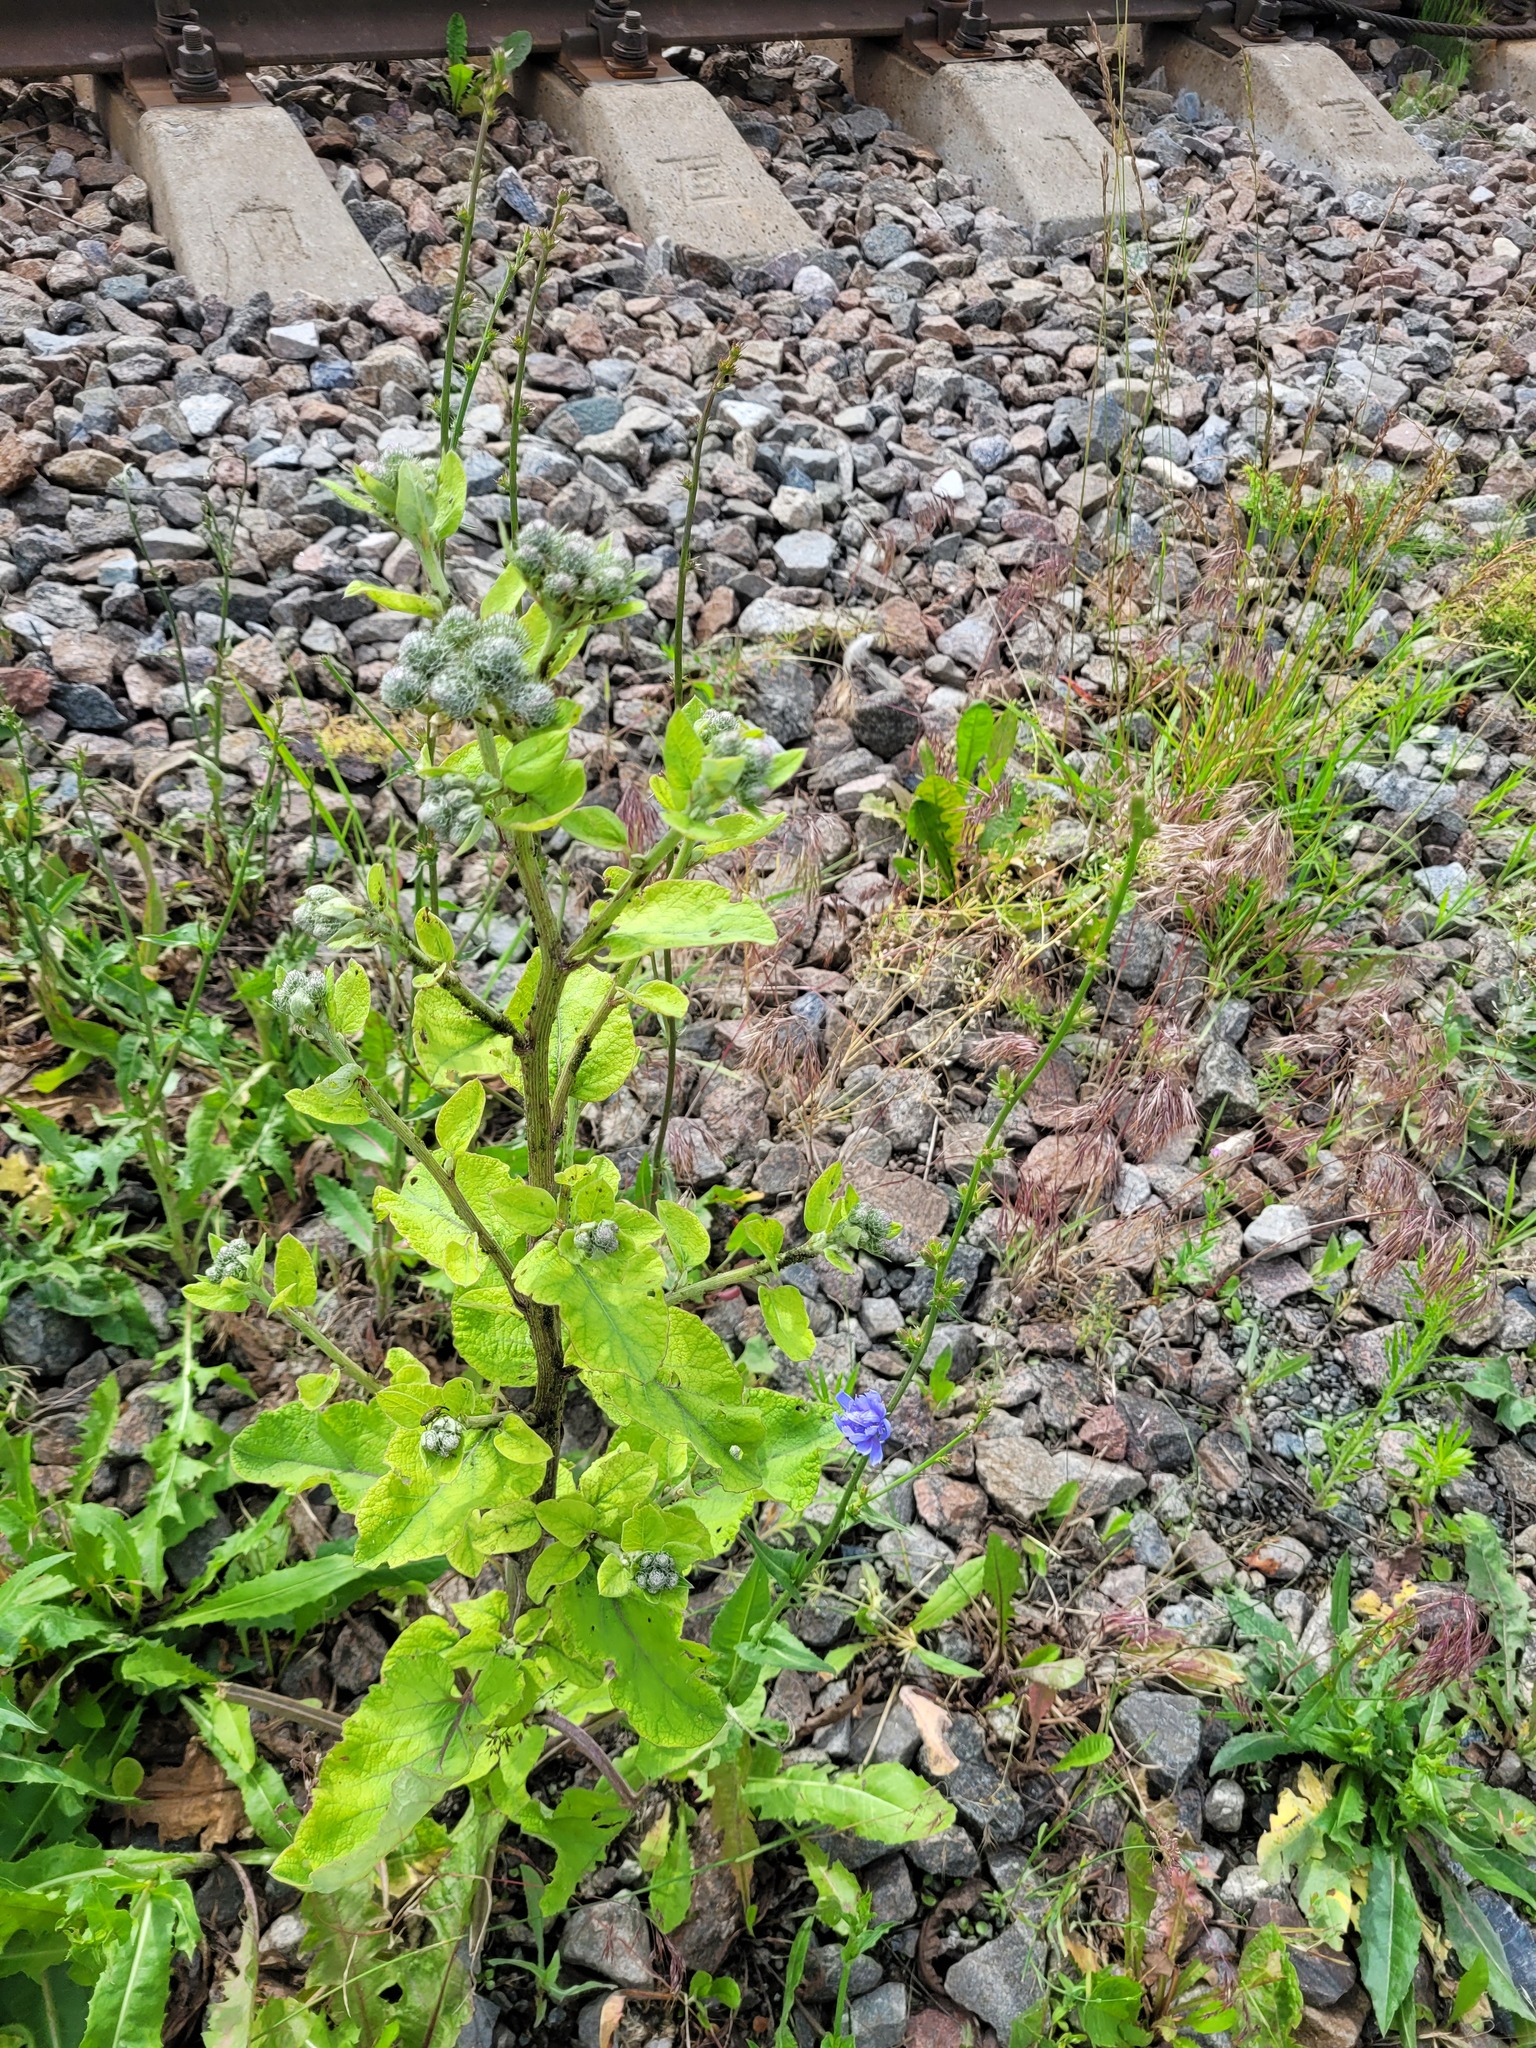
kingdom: Plantae
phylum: Tracheophyta
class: Magnoliopsida
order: Asterales
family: Asteraceae
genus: Arctium
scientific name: Arctium tomentosum
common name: Woolly burdock
